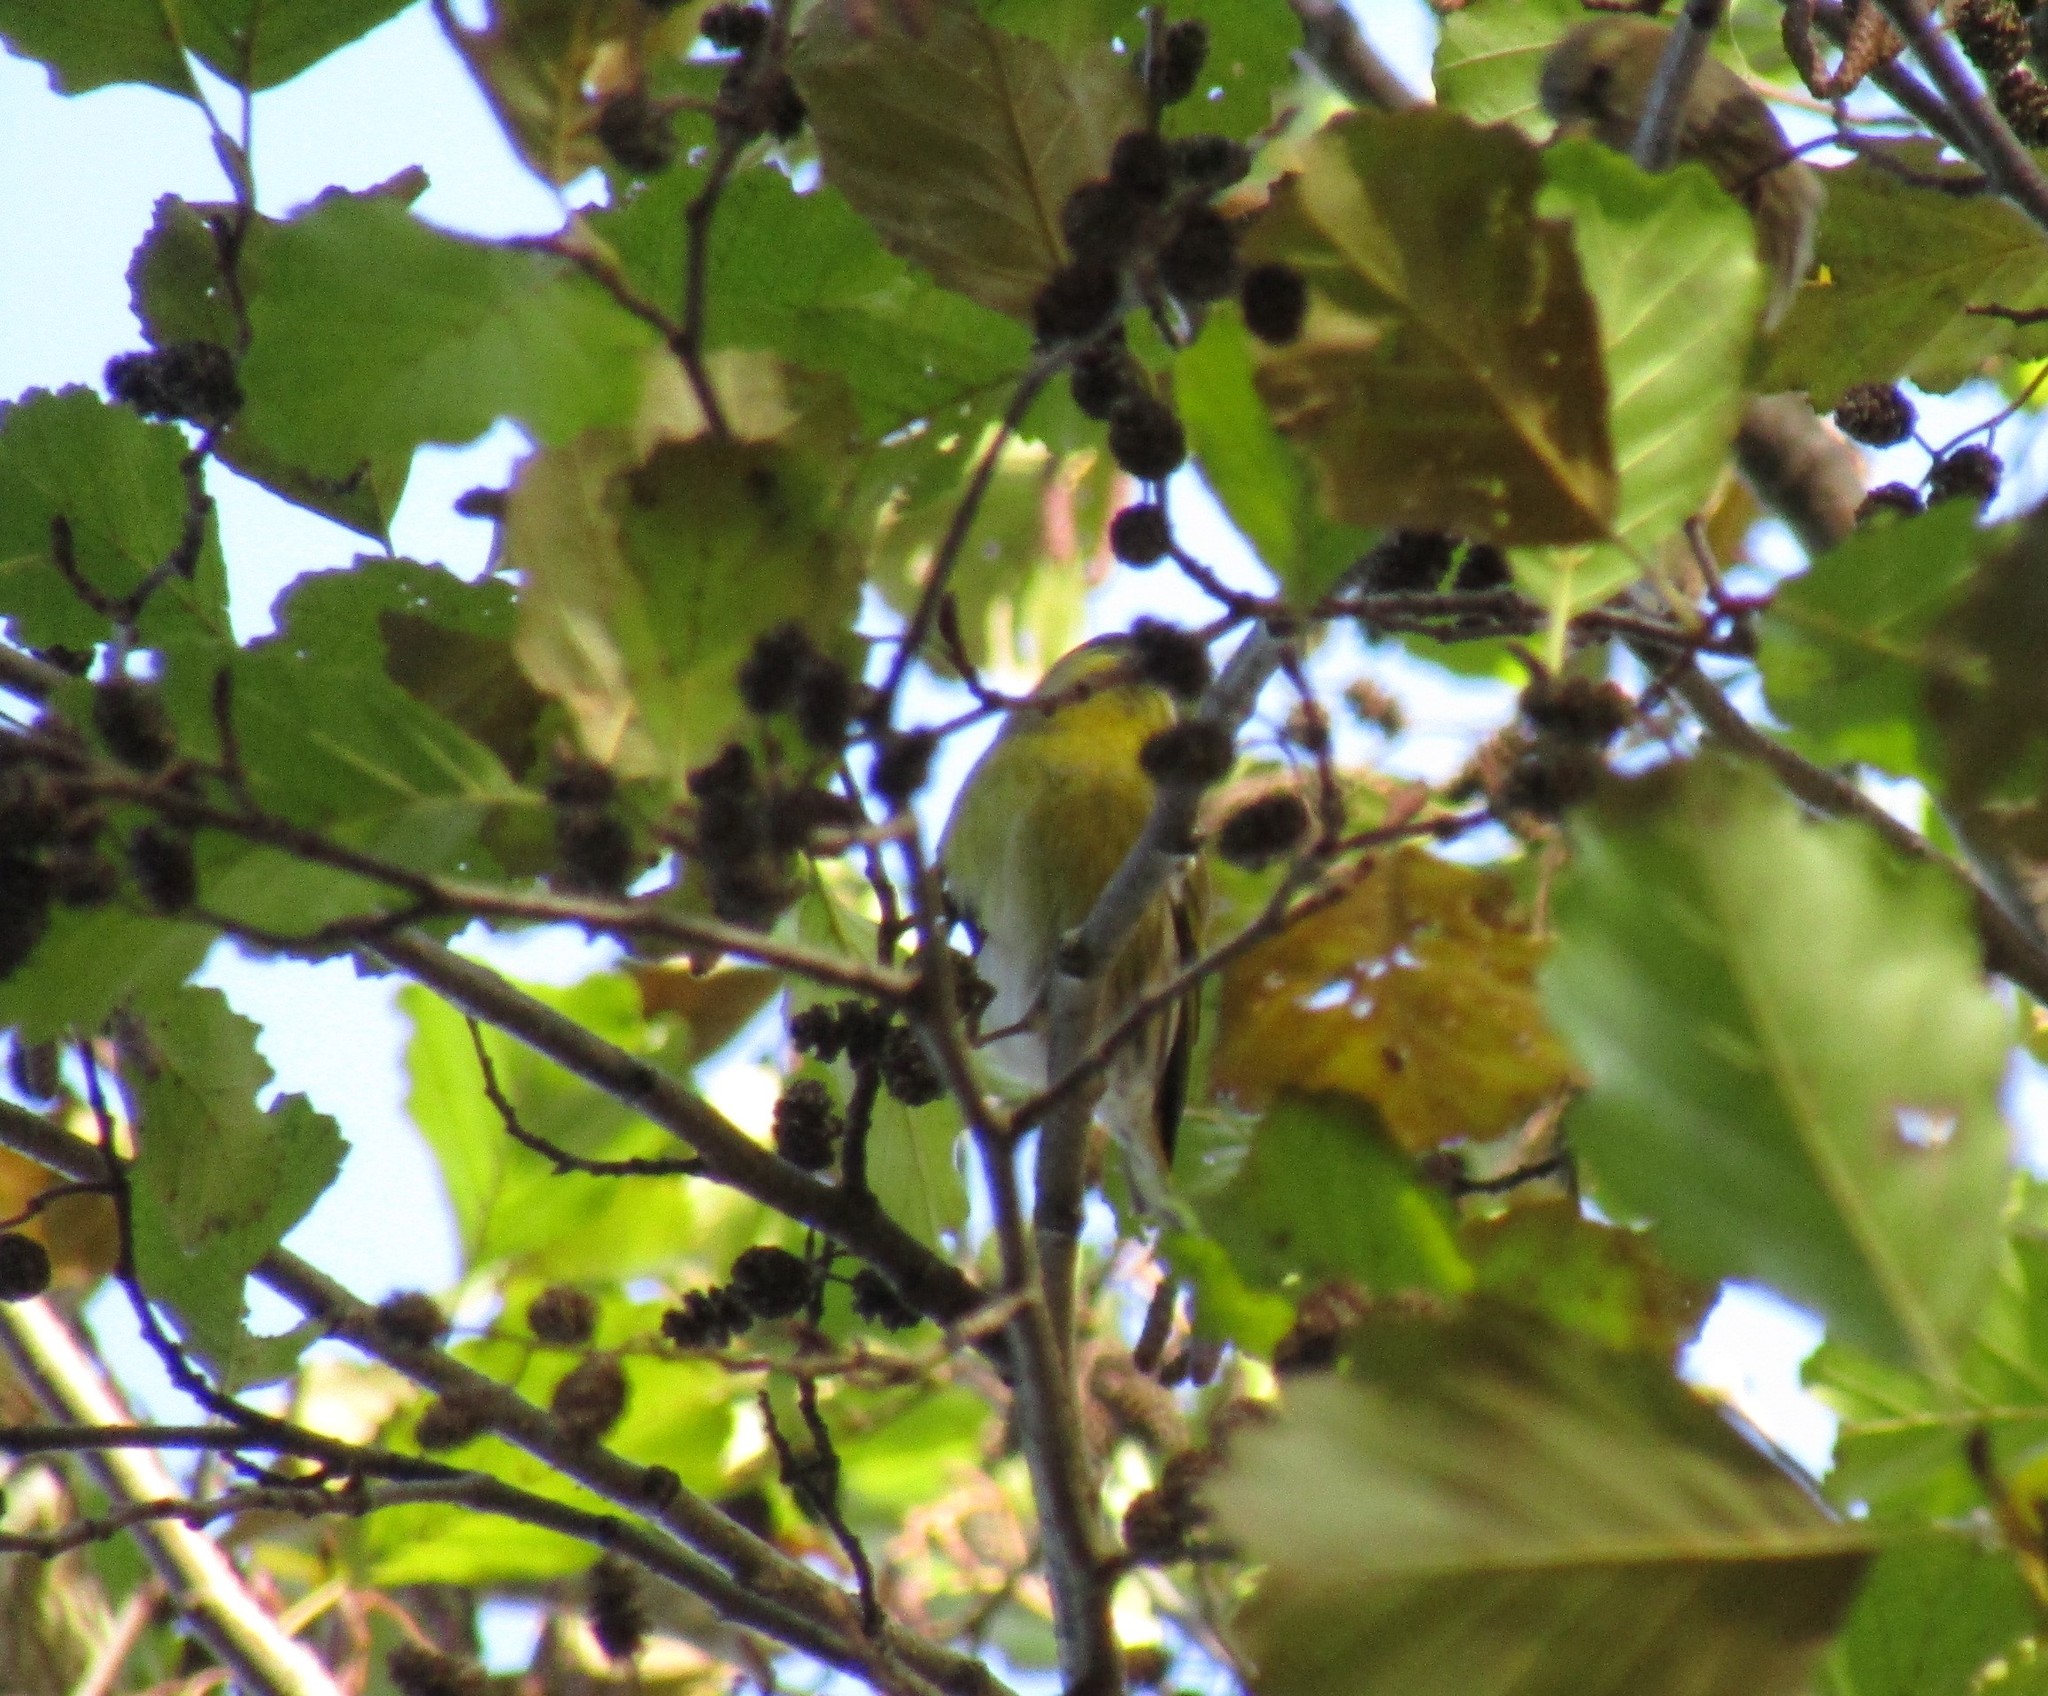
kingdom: Animalia
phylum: Chordata
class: Aves
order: Passeriformes
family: Fringillidae
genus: Spinus
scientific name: Spinus spinus
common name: Eurasian siskin
